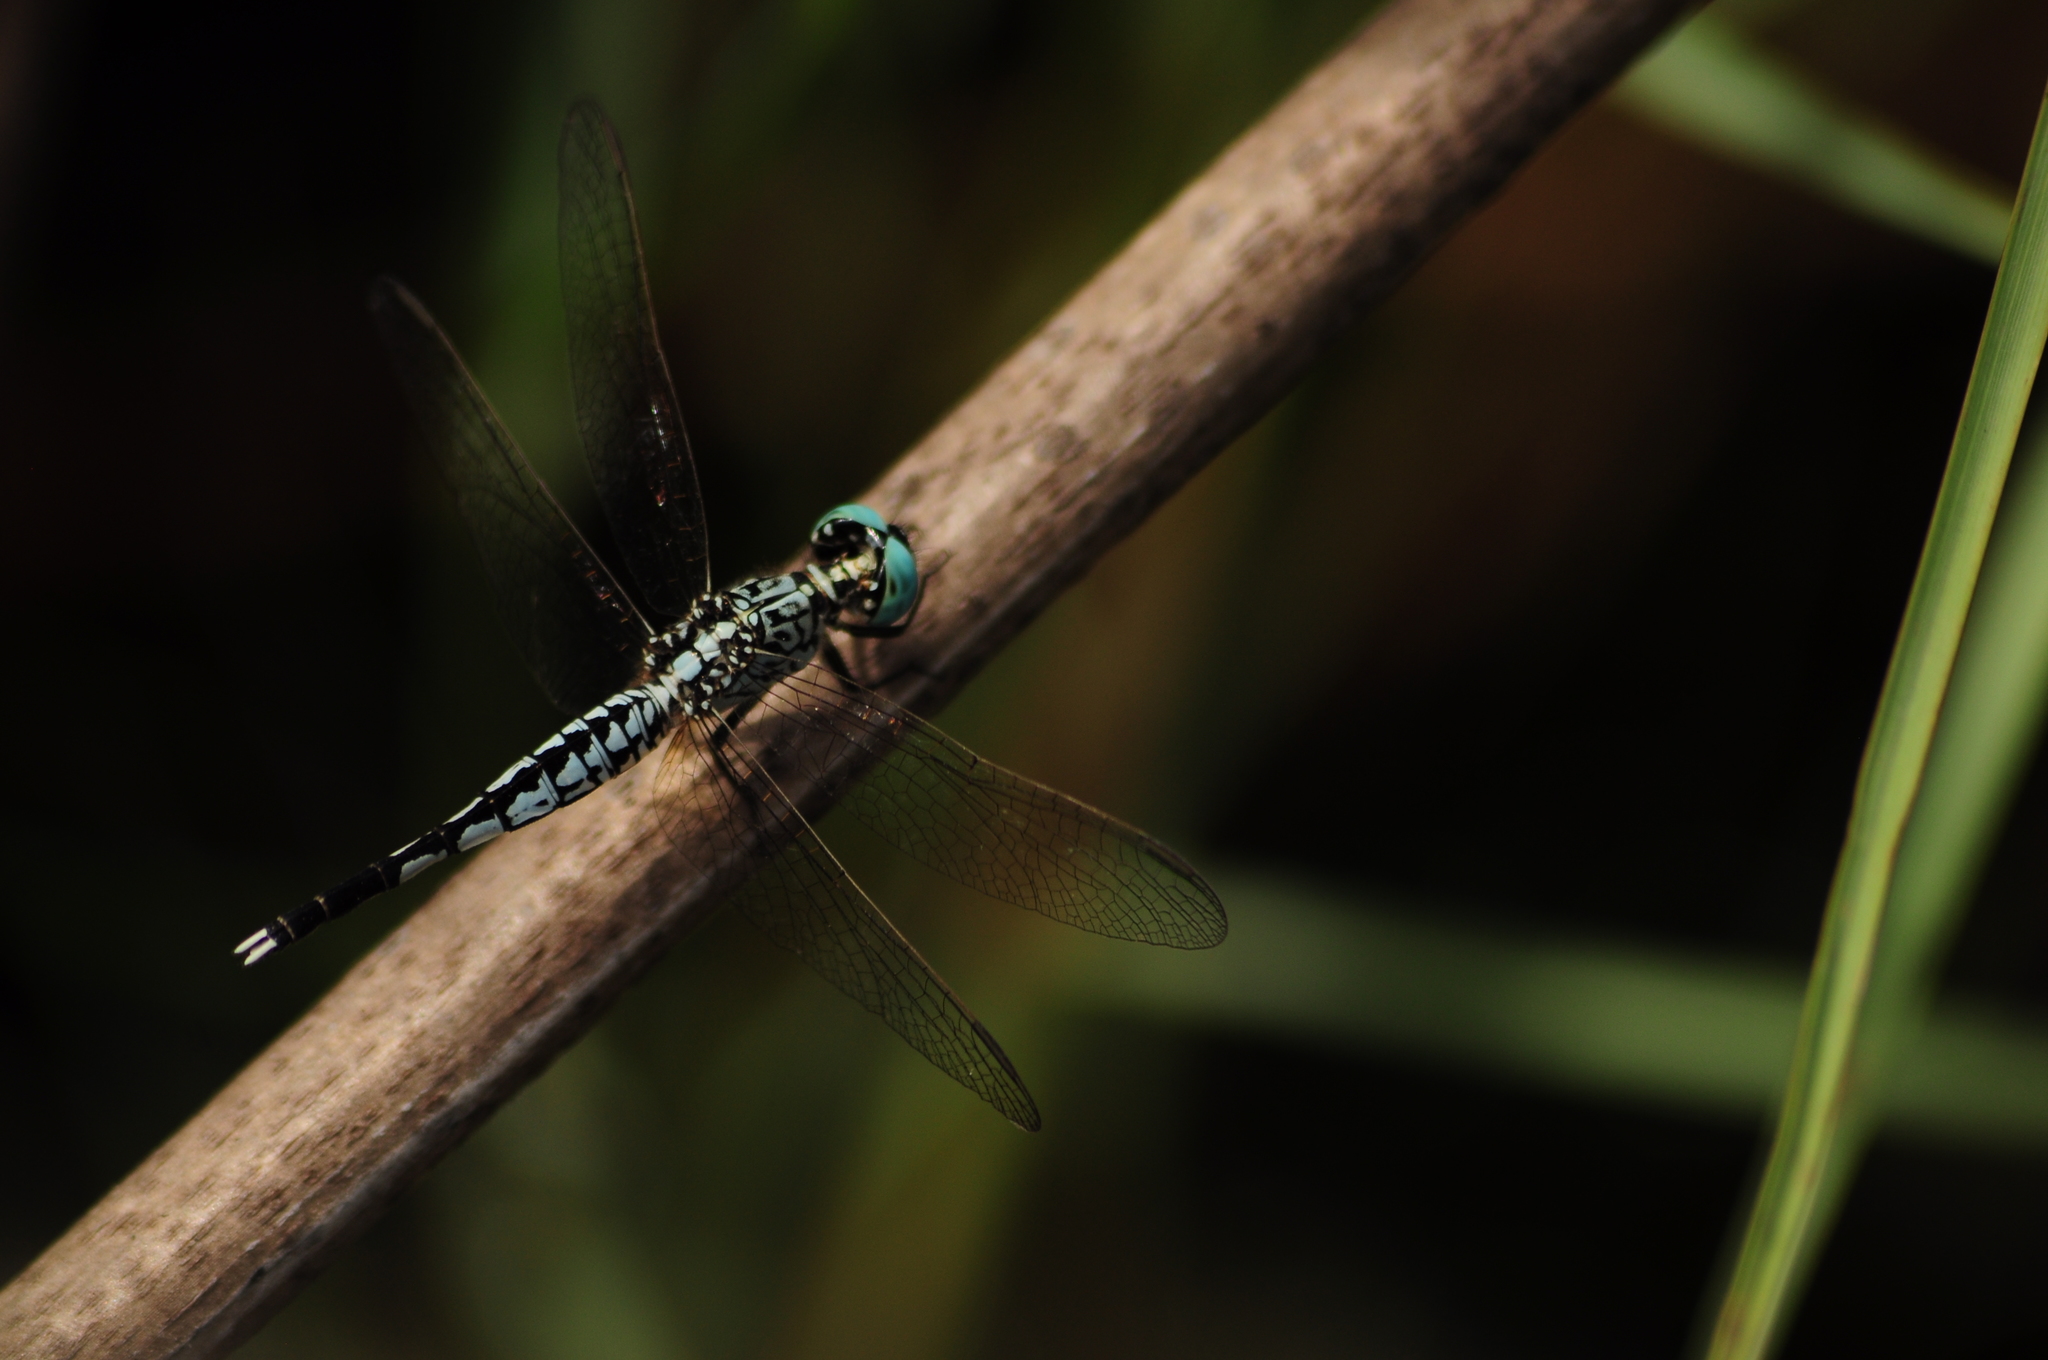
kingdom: Animalia
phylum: Arthropoda
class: Insecta
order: Odonata
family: Libellulidae
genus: Acisoma
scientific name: Acisoma panorpoides
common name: Asian pintail
